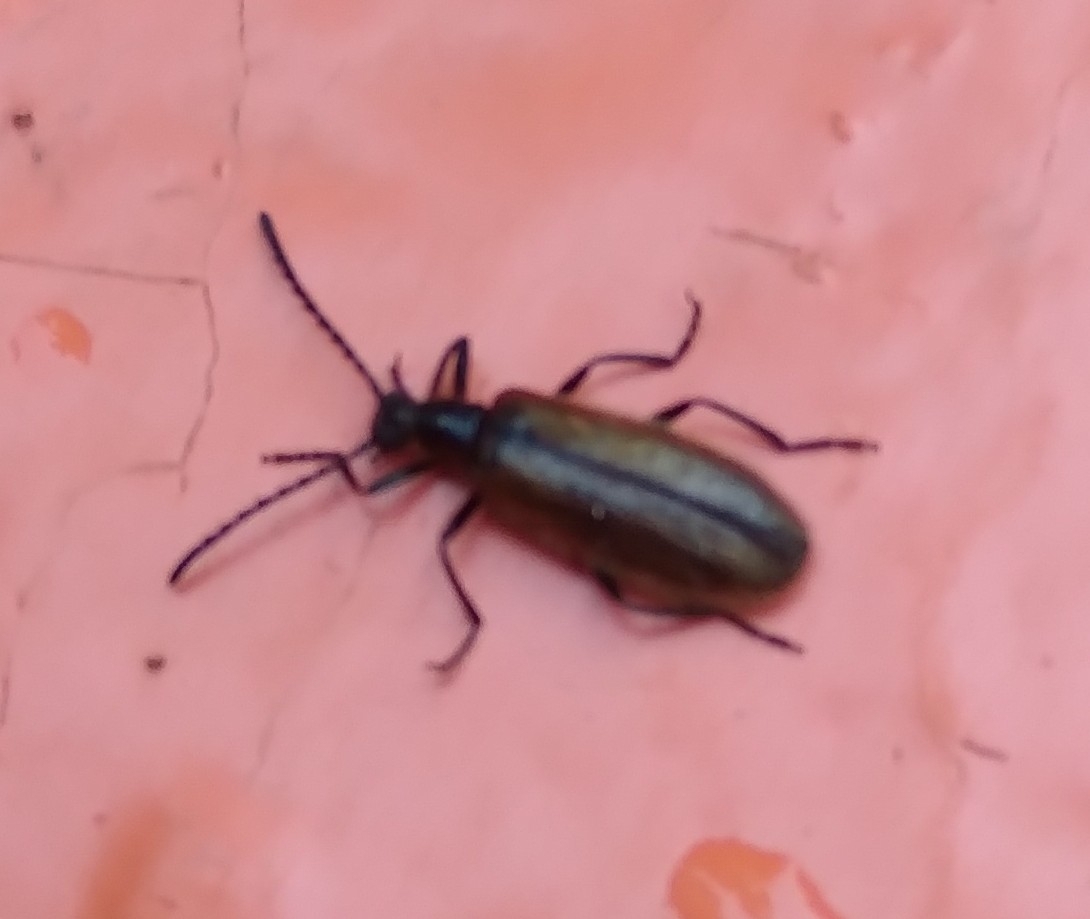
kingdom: Animalia
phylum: Arthropoda
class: Insecta
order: Coleoptera
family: Tenebrionidae
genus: Lagria
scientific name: Lagria hirta
